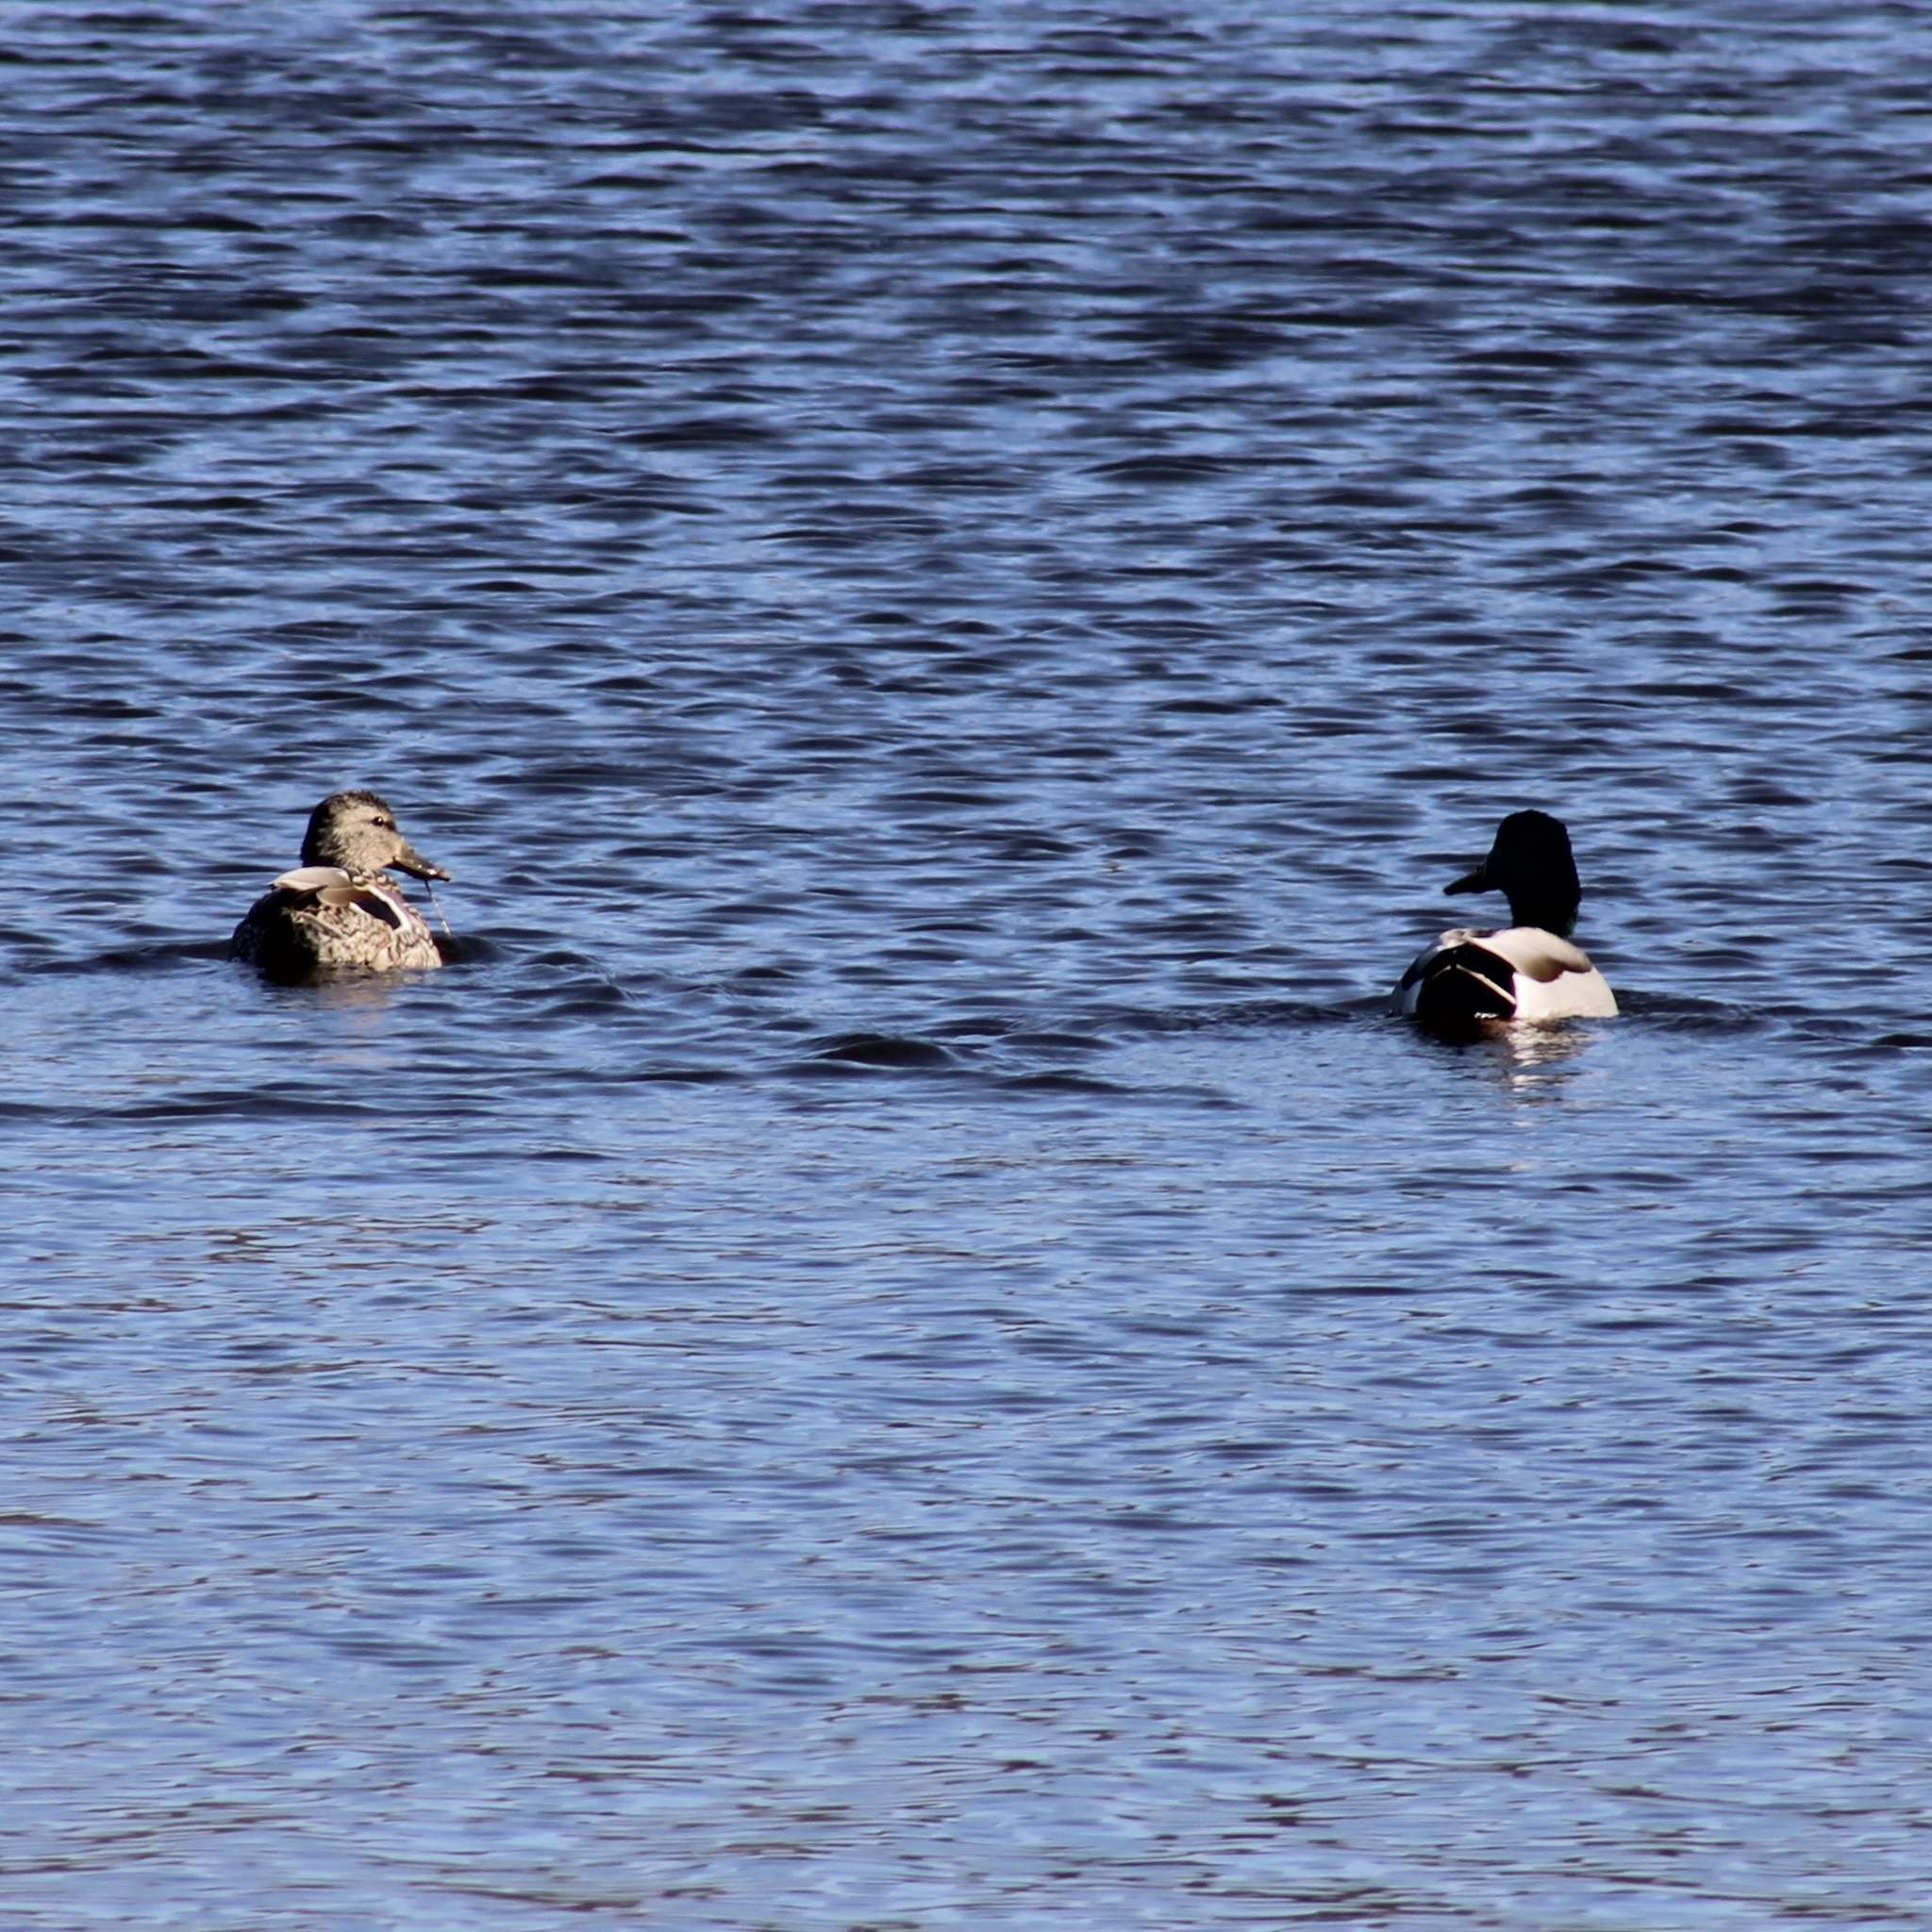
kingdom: Animalia
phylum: Chordata
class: Aves
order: Anseriformes
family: Anatidae
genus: Anas
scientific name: Anas platyrhynchos
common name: Mallard
